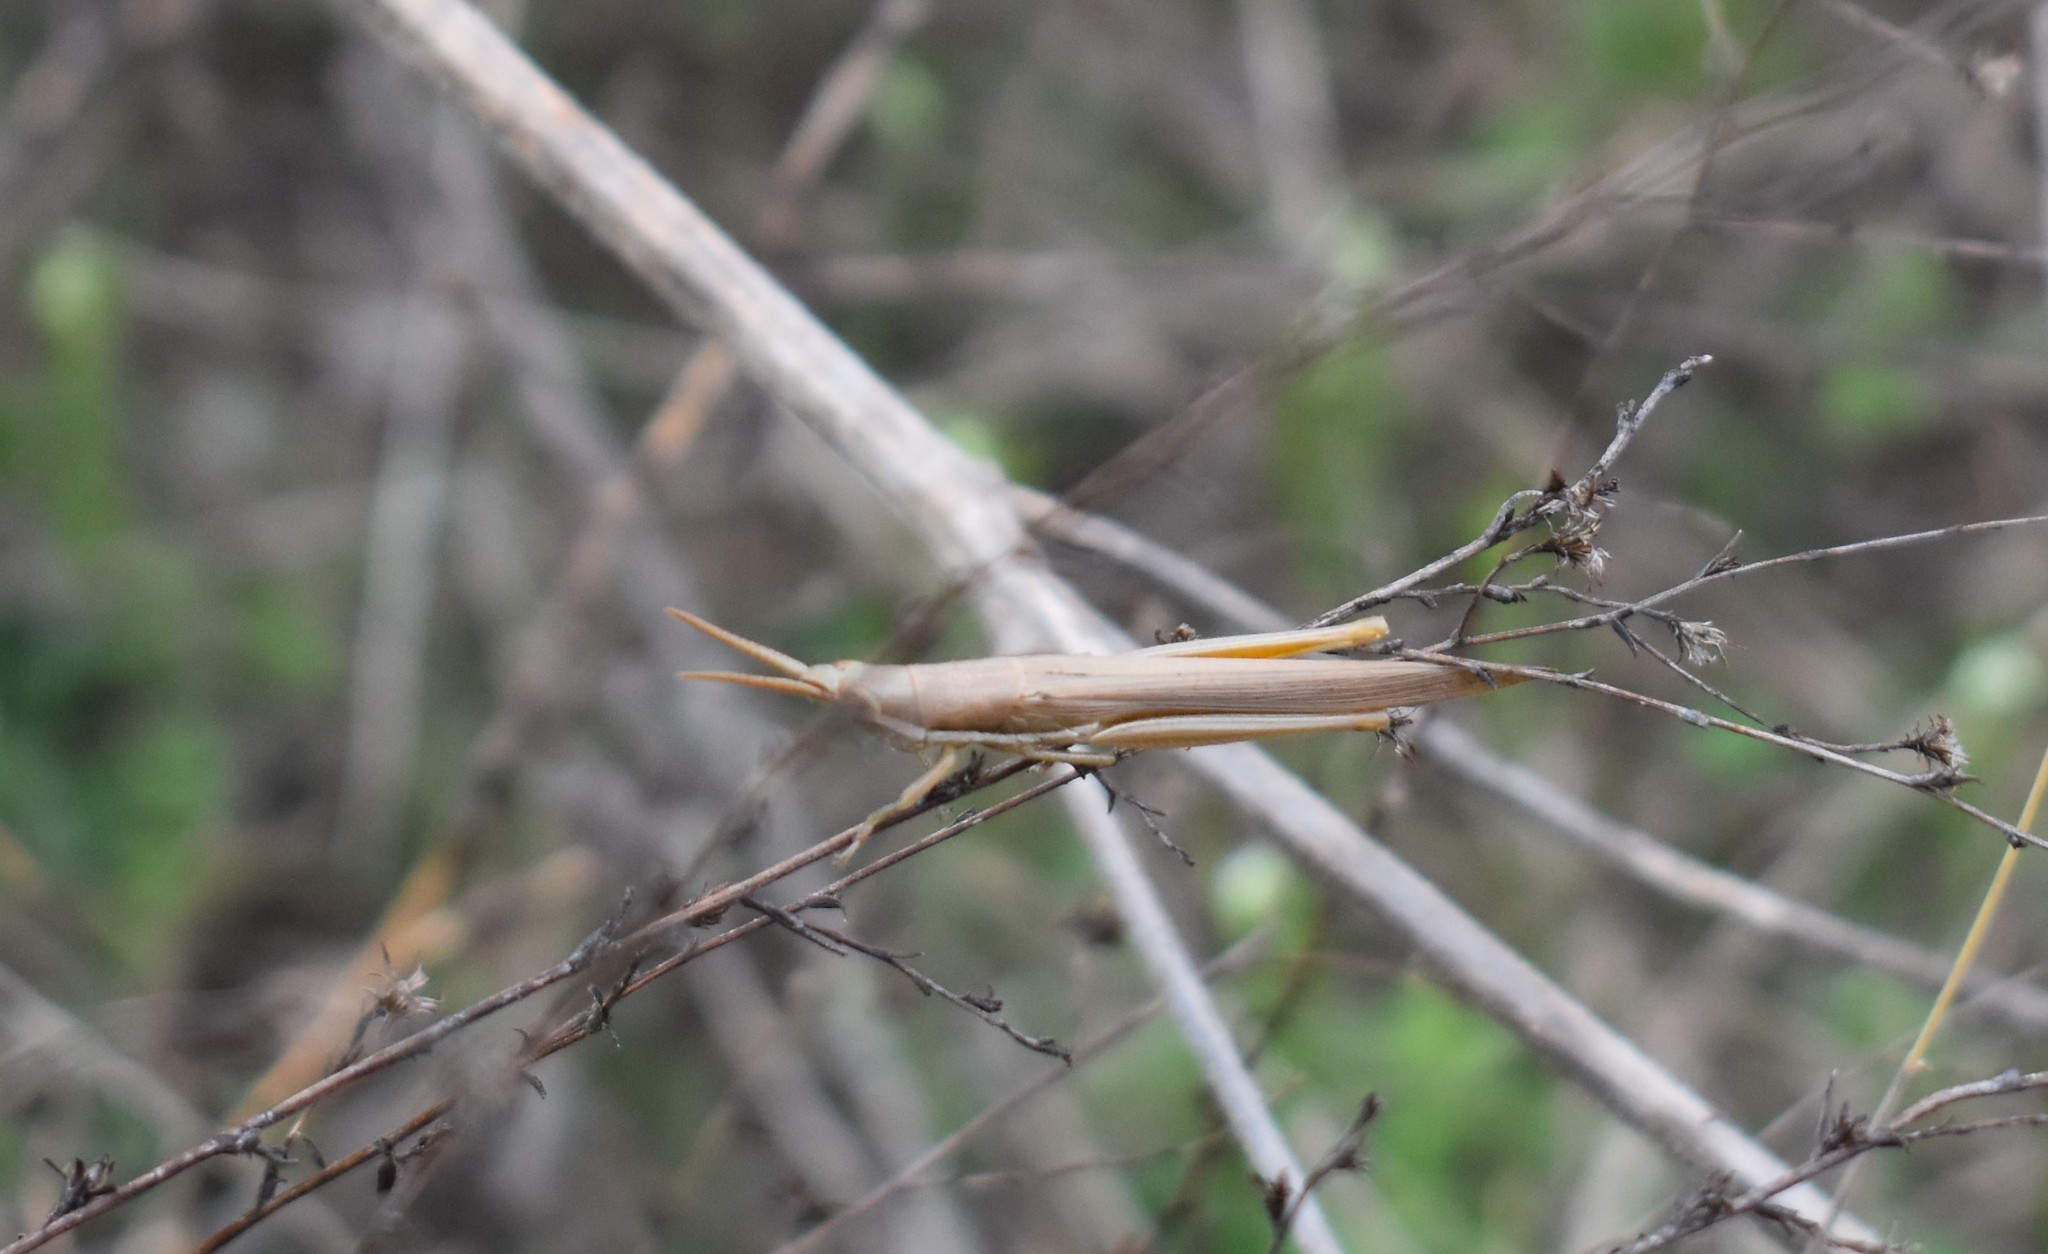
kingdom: Animalia
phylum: Arthropoda
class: Insecta
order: Orthoptera
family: Acrididae
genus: Leptysma
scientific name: Leptysma marginicollis
